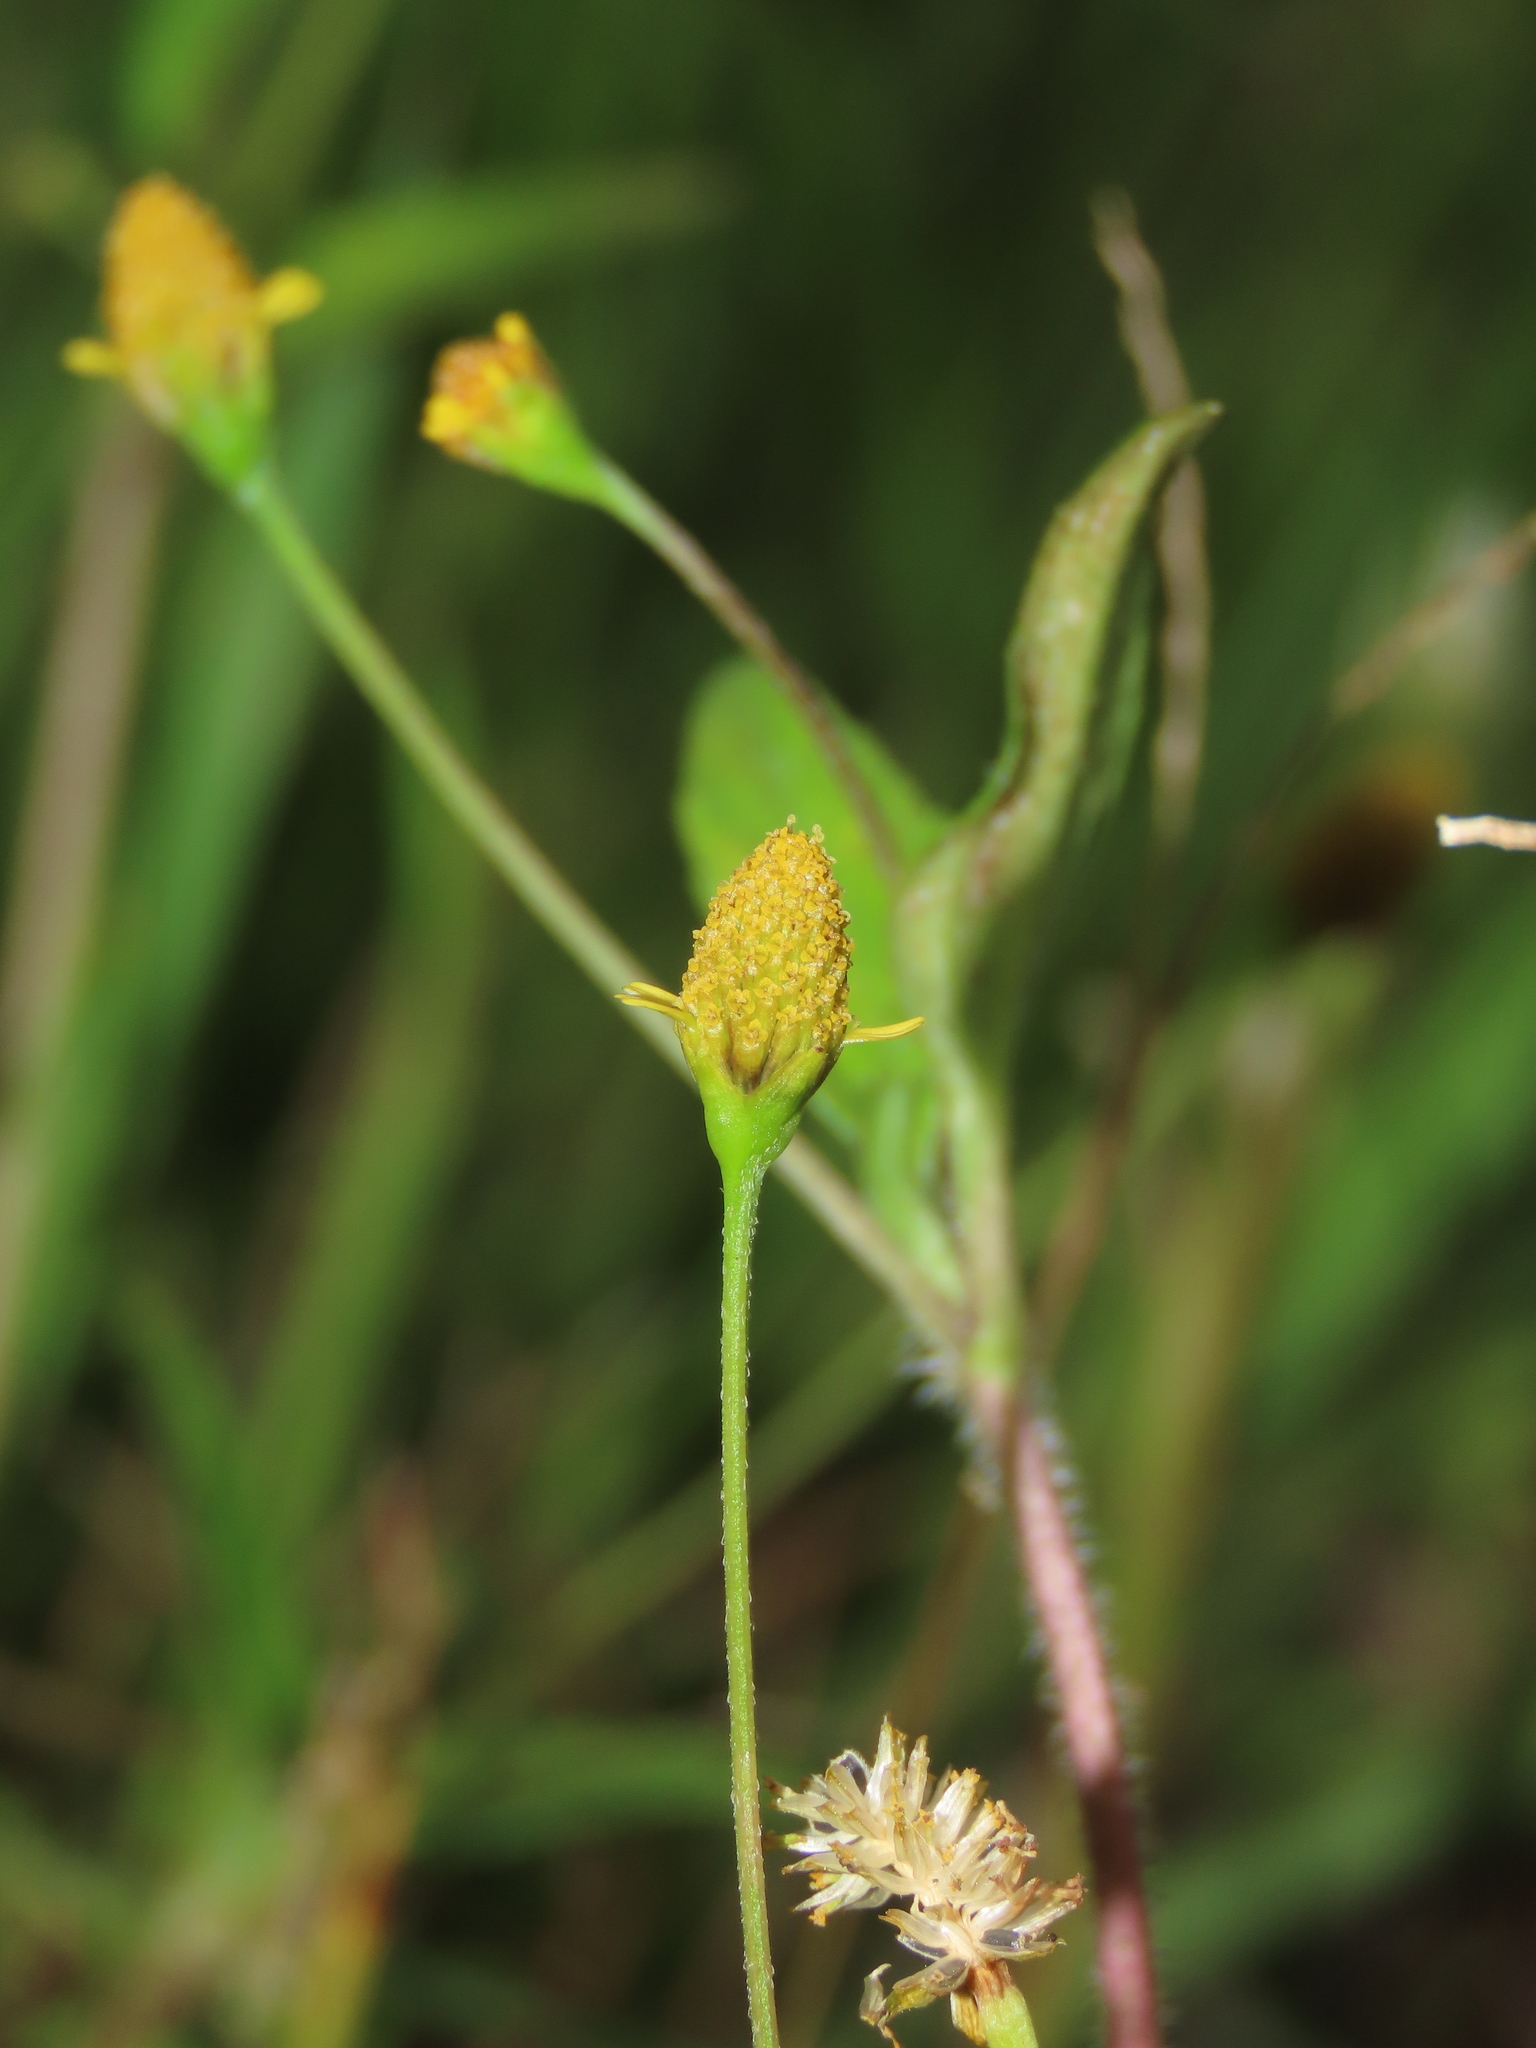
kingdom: Plantae
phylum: Tracheophyta
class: Magnoliopsida
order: Asterales
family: Asteraceae
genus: Acmella
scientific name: Acmella uliginosa
